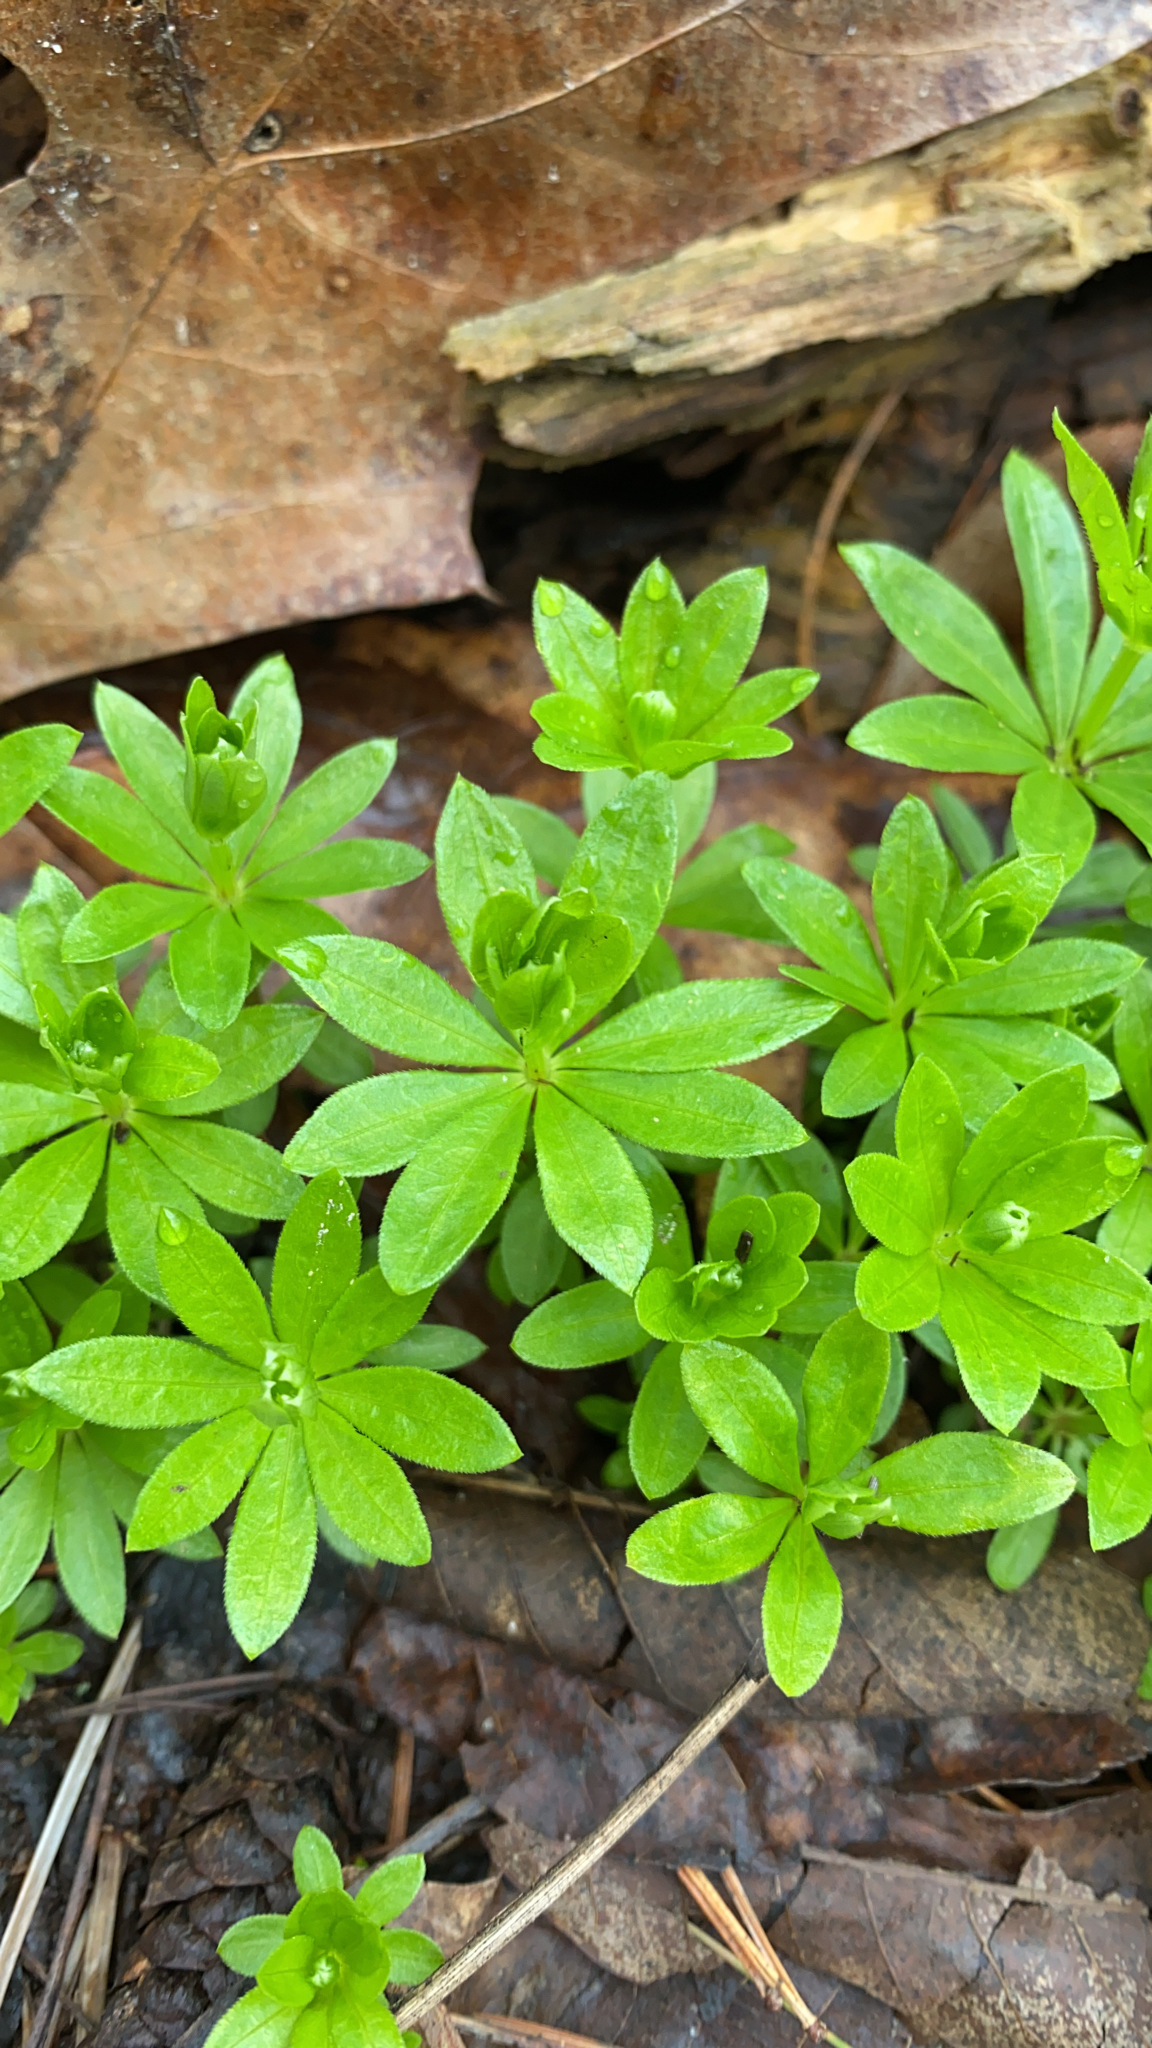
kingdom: Plantae
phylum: Tracheophyta
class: Magnoliopsida
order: Gentianales
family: Rubiaceae
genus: Galium
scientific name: Galium odoratum
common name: Sweet woodruff
